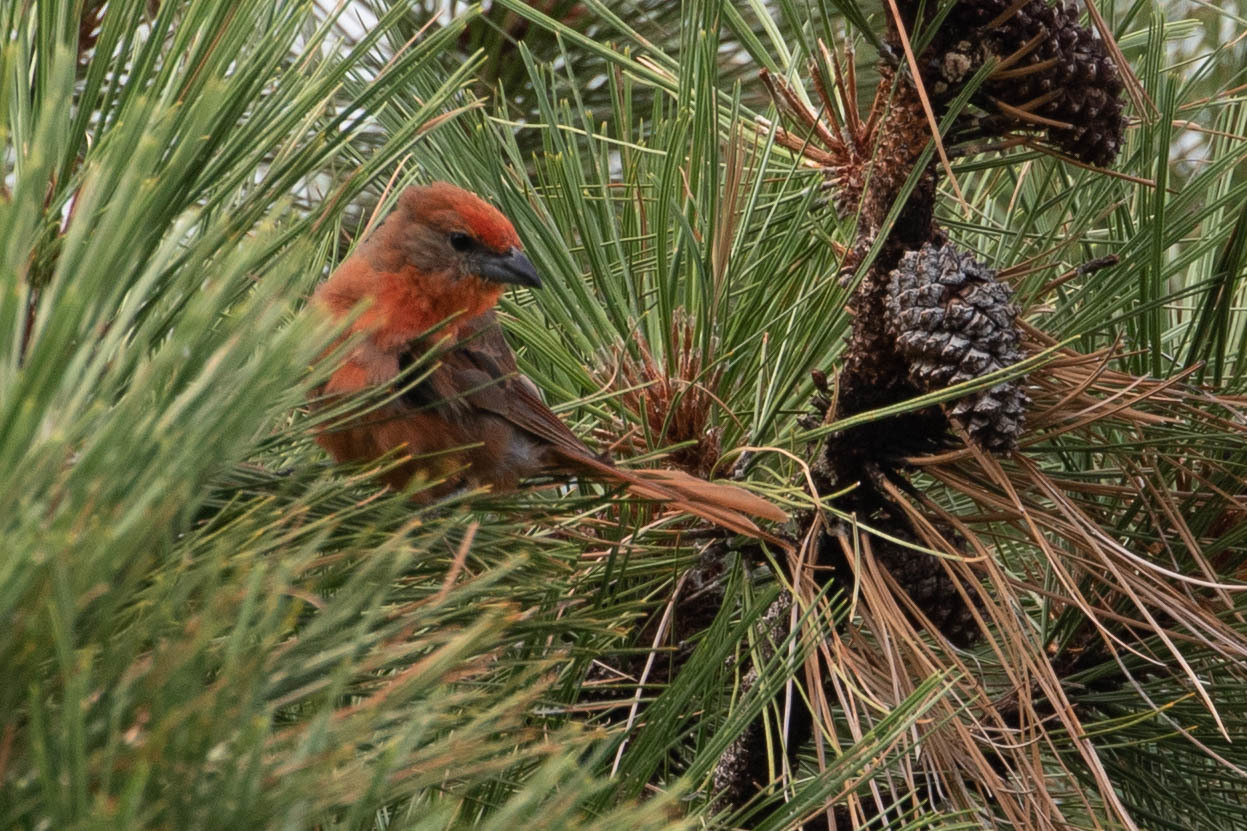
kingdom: Animalia
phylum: Chordata
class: Aves
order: Passeriformes
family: Cardinalidae
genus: Piranga
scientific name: Piranga flava
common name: Red tanager
